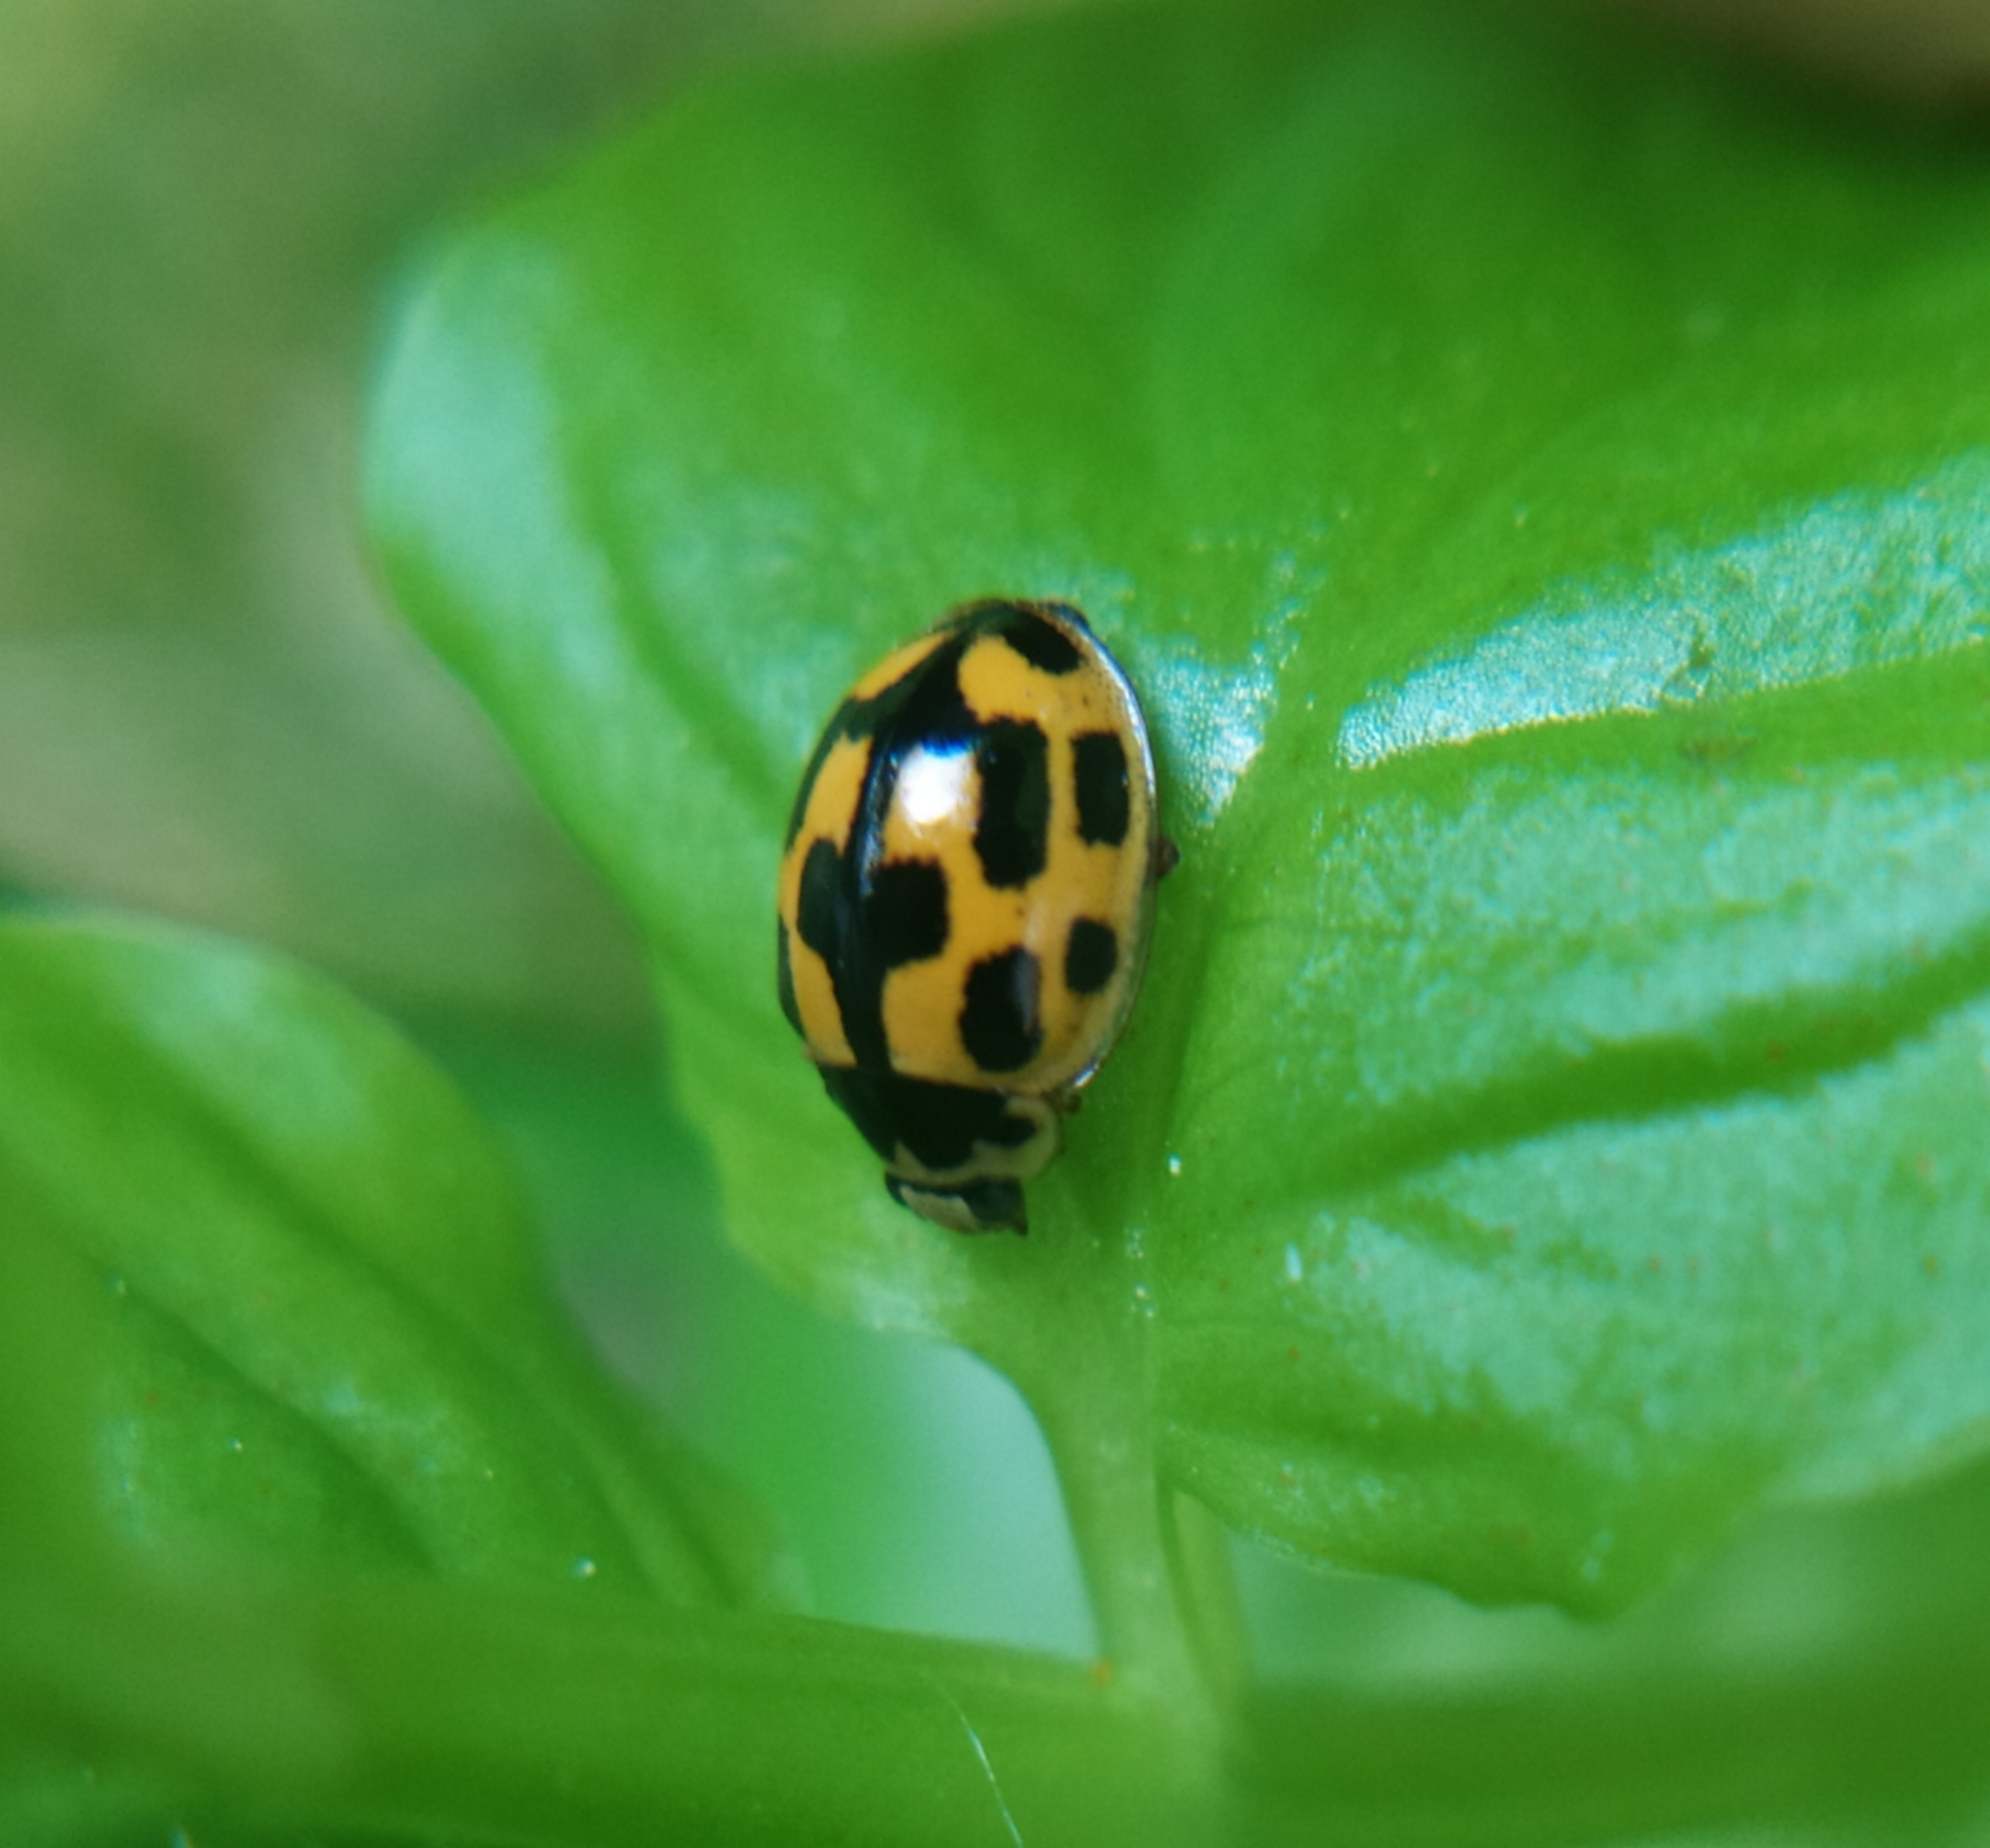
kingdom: Animalia
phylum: Arthropoda
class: Insecta
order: Coleoptera
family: Coccinellidae
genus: Propylaea
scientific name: Propylaea quatuordecimpunctata
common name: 14-spotted ladybird beetle
